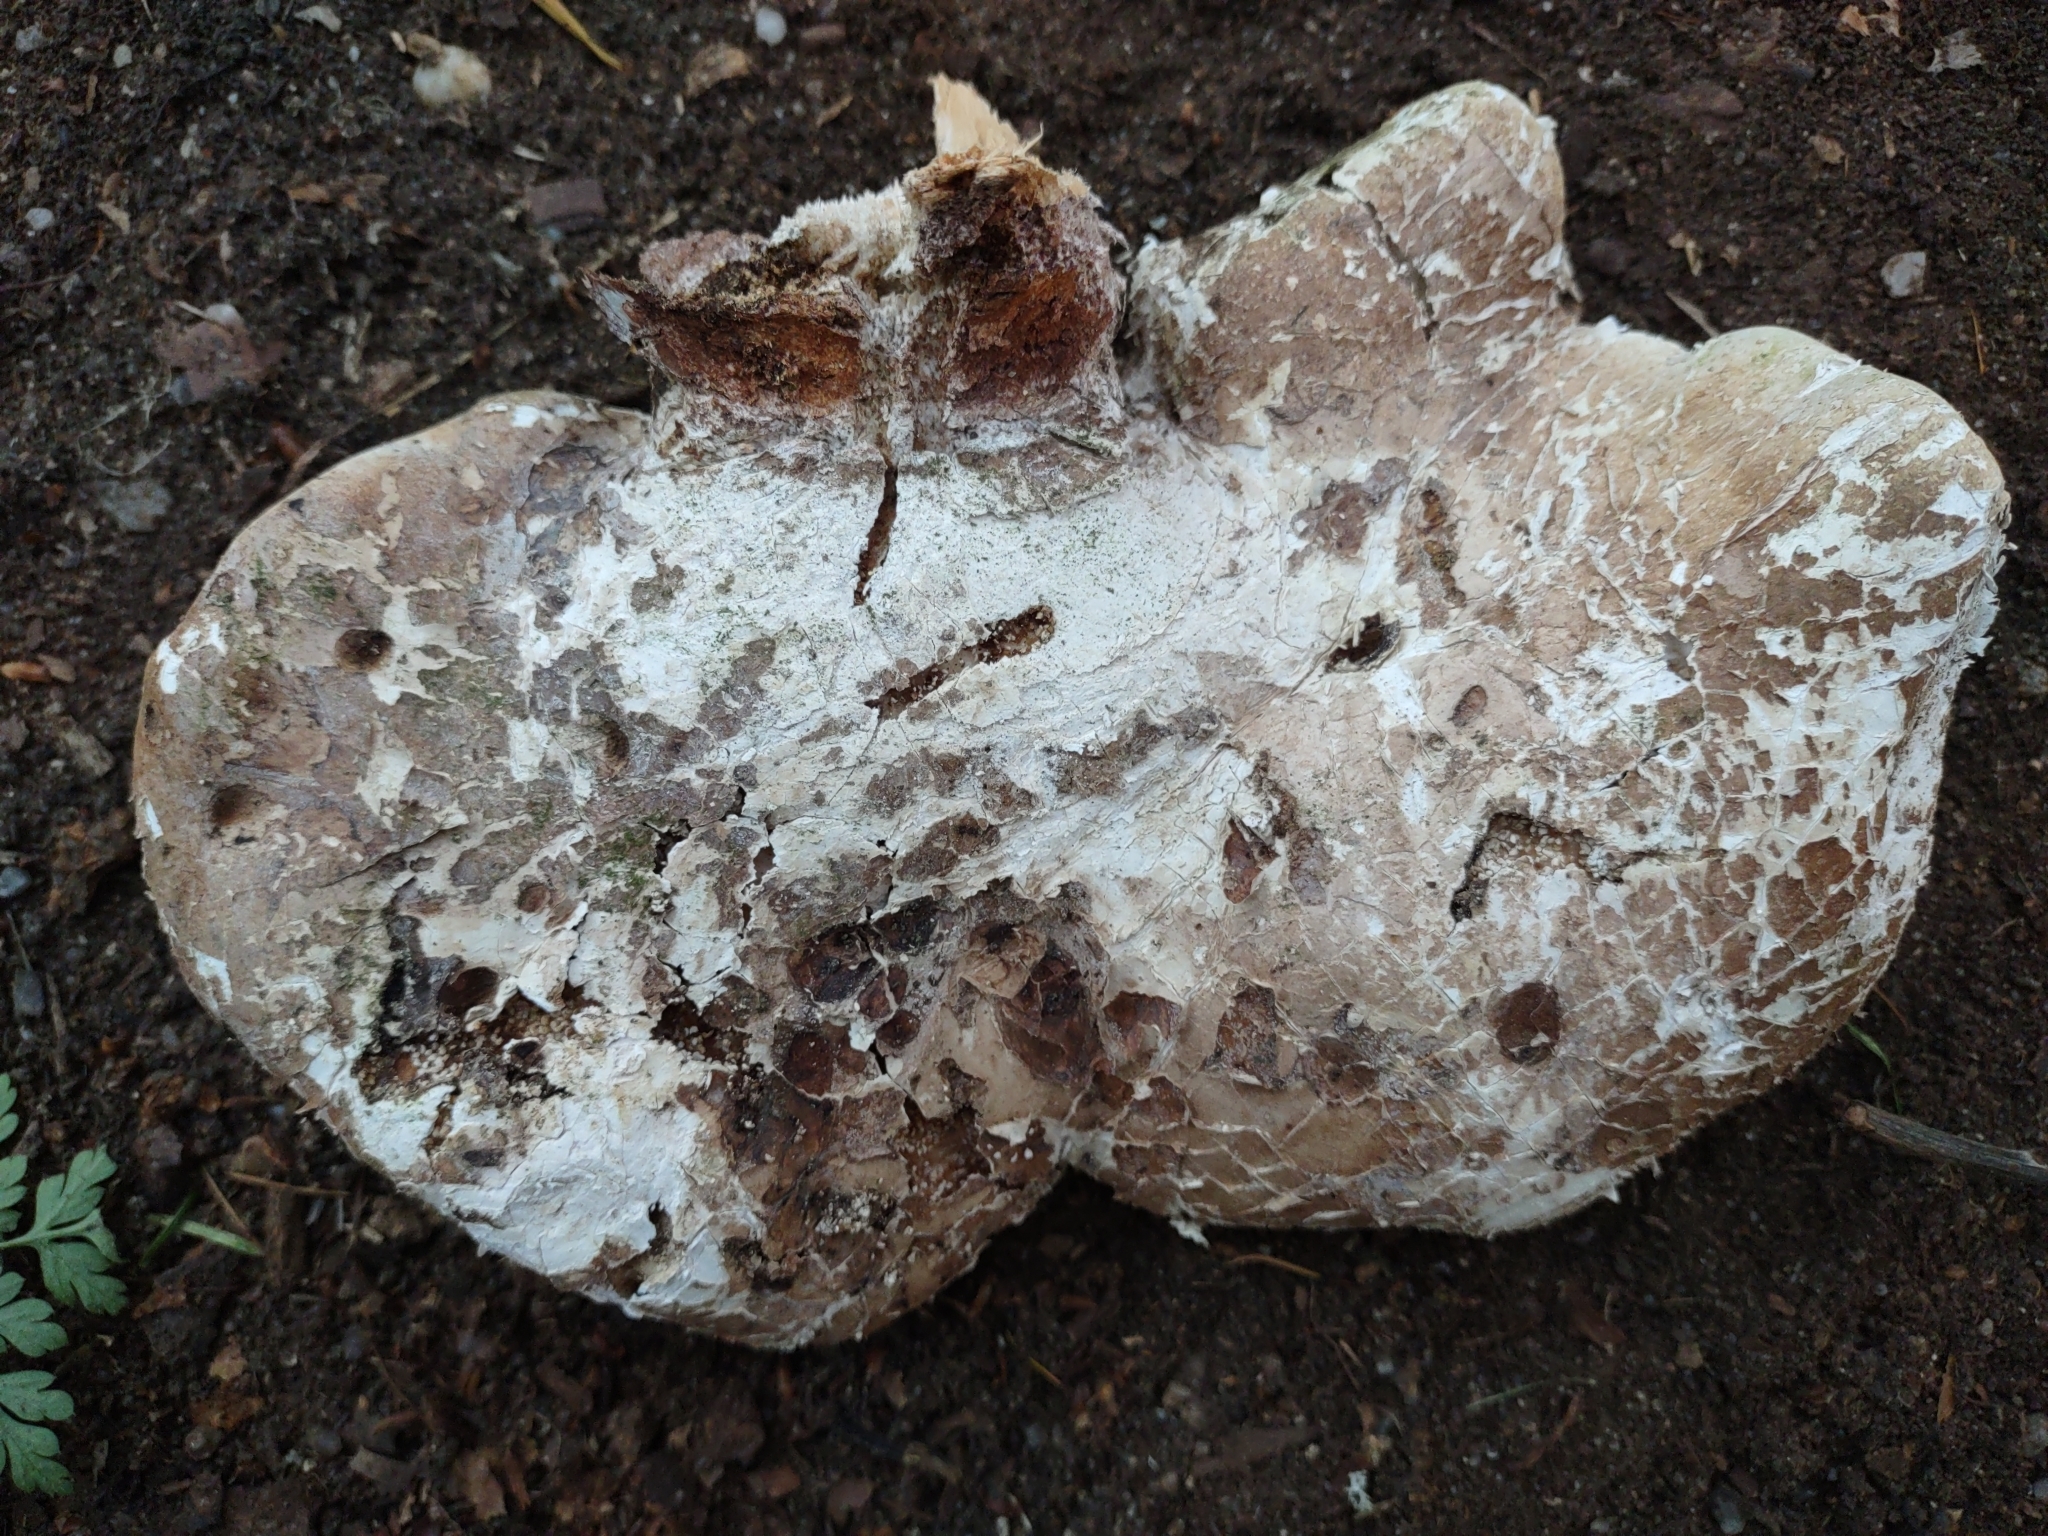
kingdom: Fungi
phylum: Basidiomycota
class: Agaricomycetes
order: Polyporales
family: Fomitopsidaceae
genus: Fomitopsis
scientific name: Fomitopsis betulina
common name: Birch polypore
